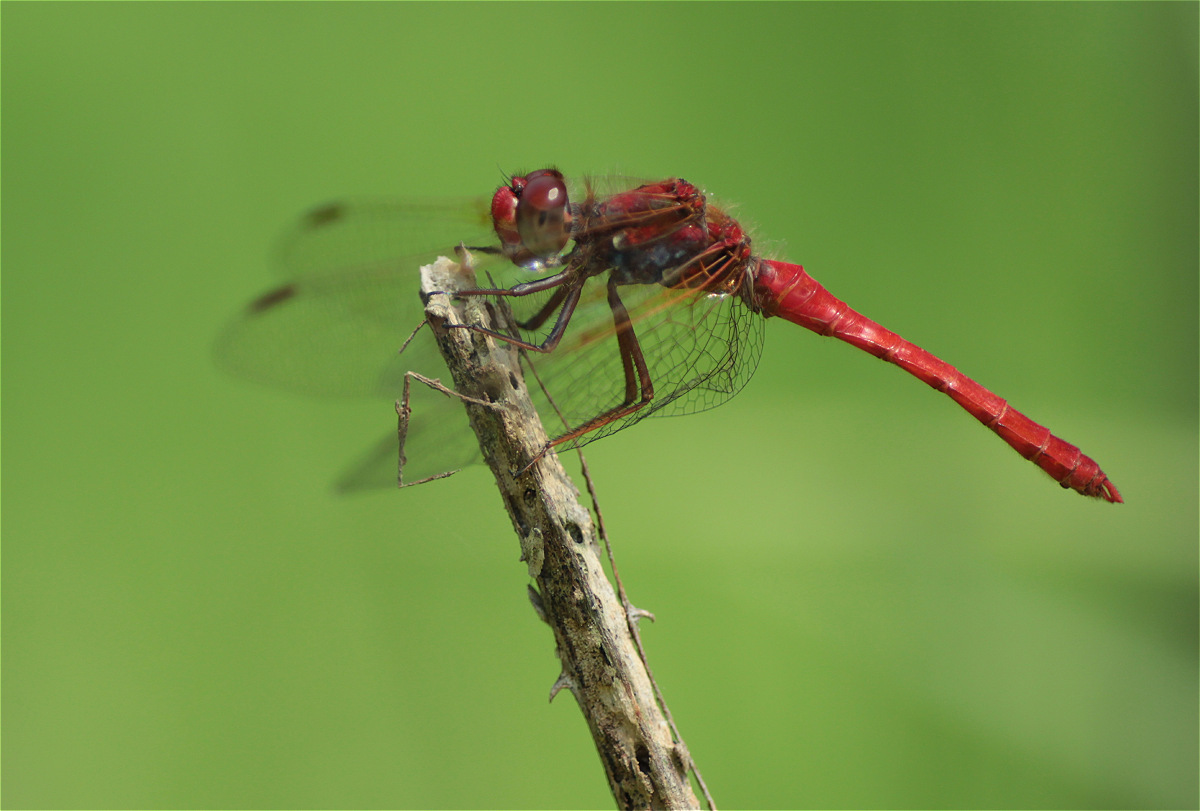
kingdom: Animalia
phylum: Arthropoda
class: Insecta
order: Odonata
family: Libellulidae
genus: Sympetrum
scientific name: Sympetrum gilvum
